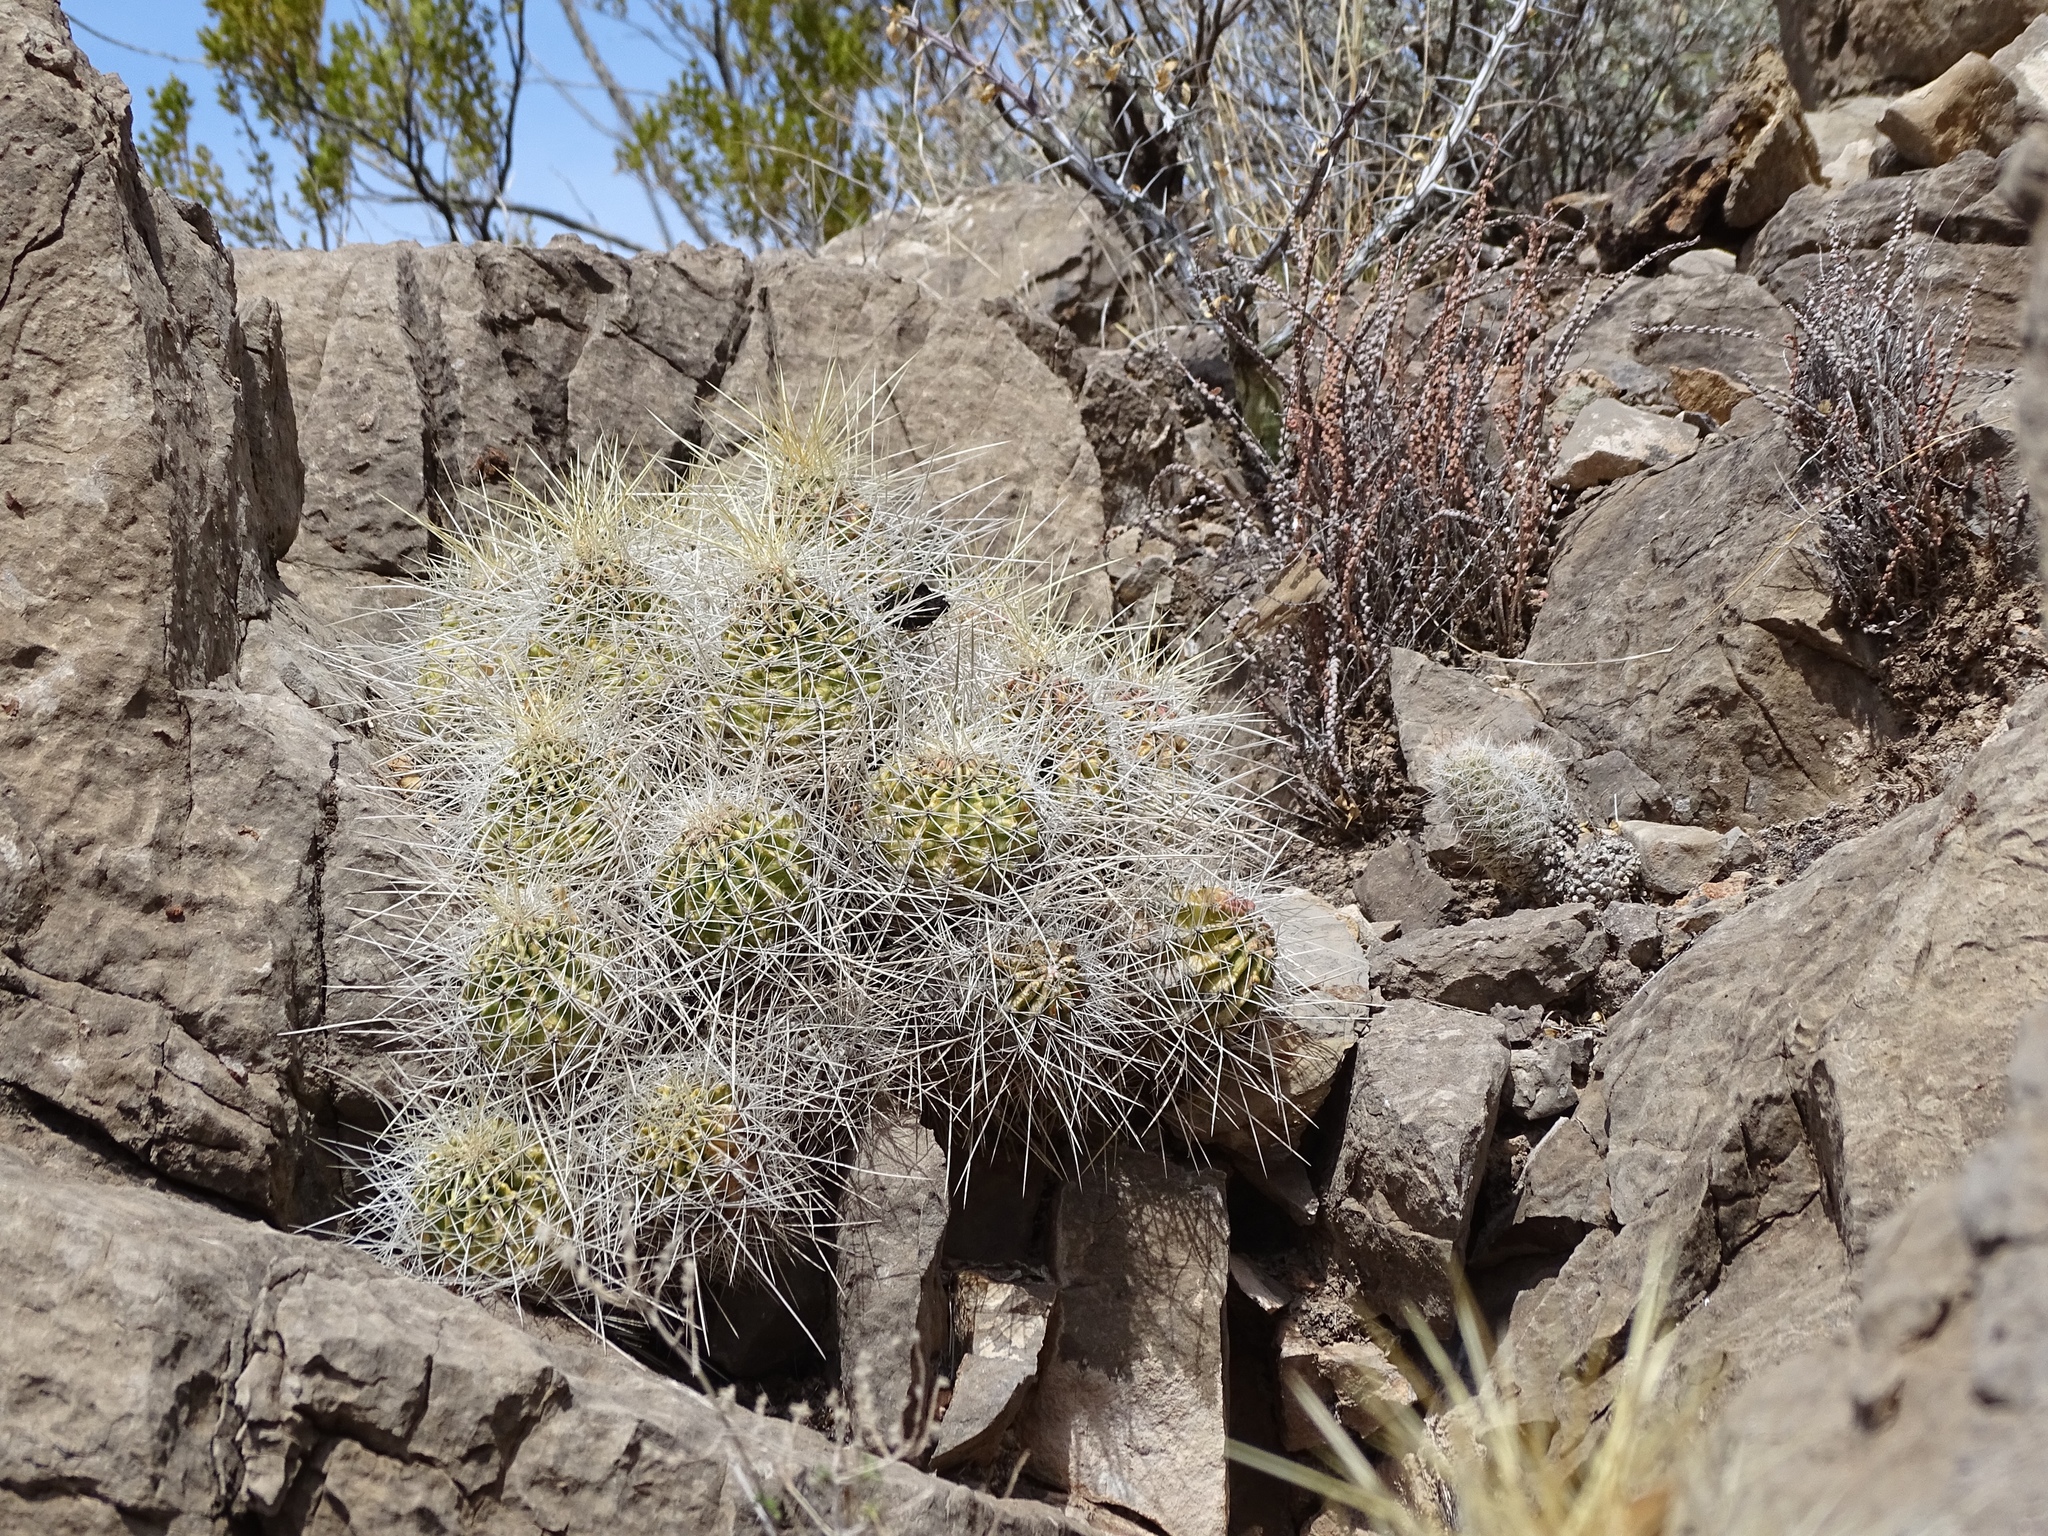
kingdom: Plantae
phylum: Tracheophyta
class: Magnoliopsida
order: Caryophyllales
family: Cactaceae
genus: Echinocereus
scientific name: Echinocereus stramineus
